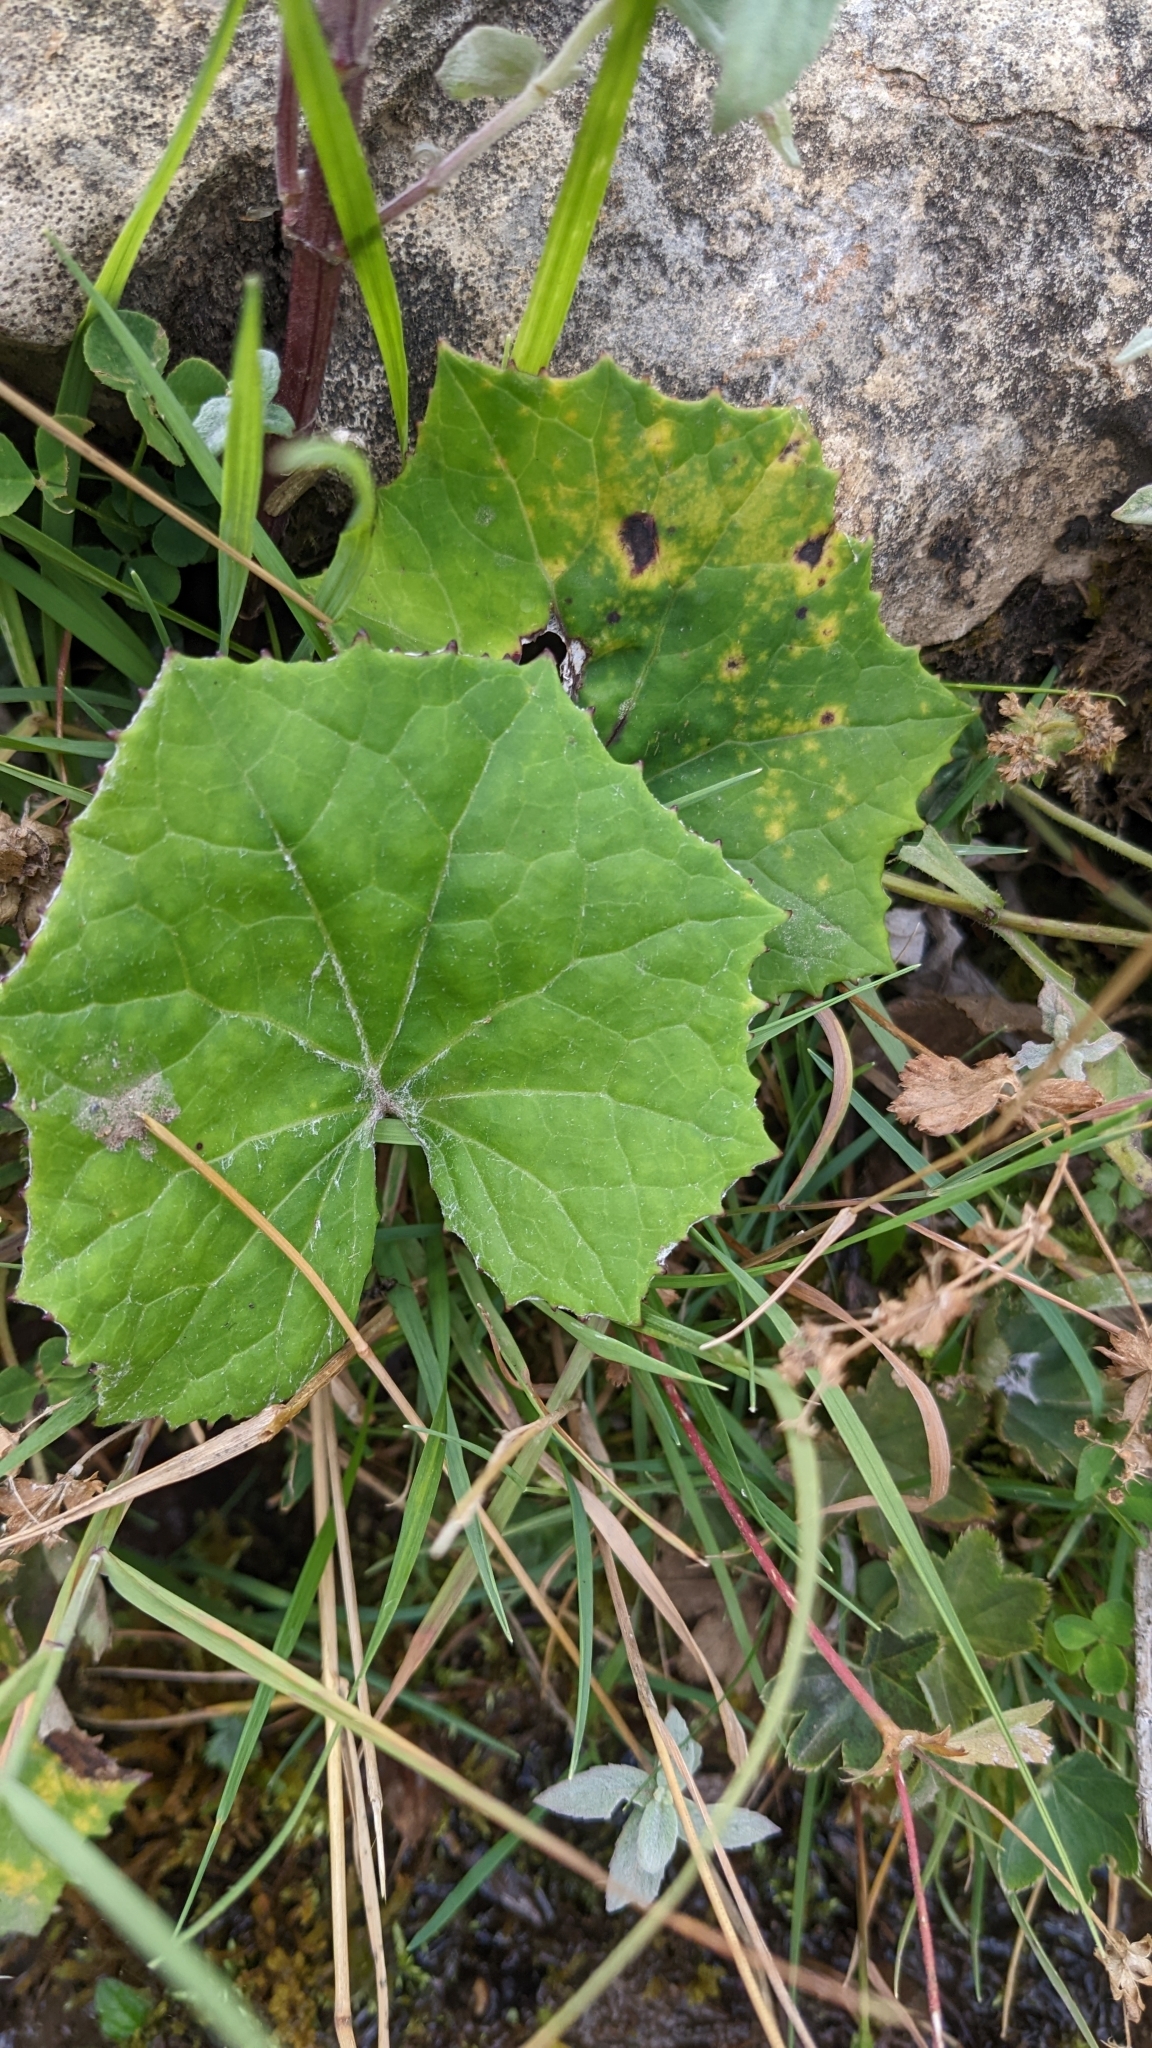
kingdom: Plantae
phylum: Tracheophyta
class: Magnoliopsida
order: Asterales
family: Asteraceae
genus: Tussilago
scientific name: Tussilago farfara
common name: Coltsfoot
